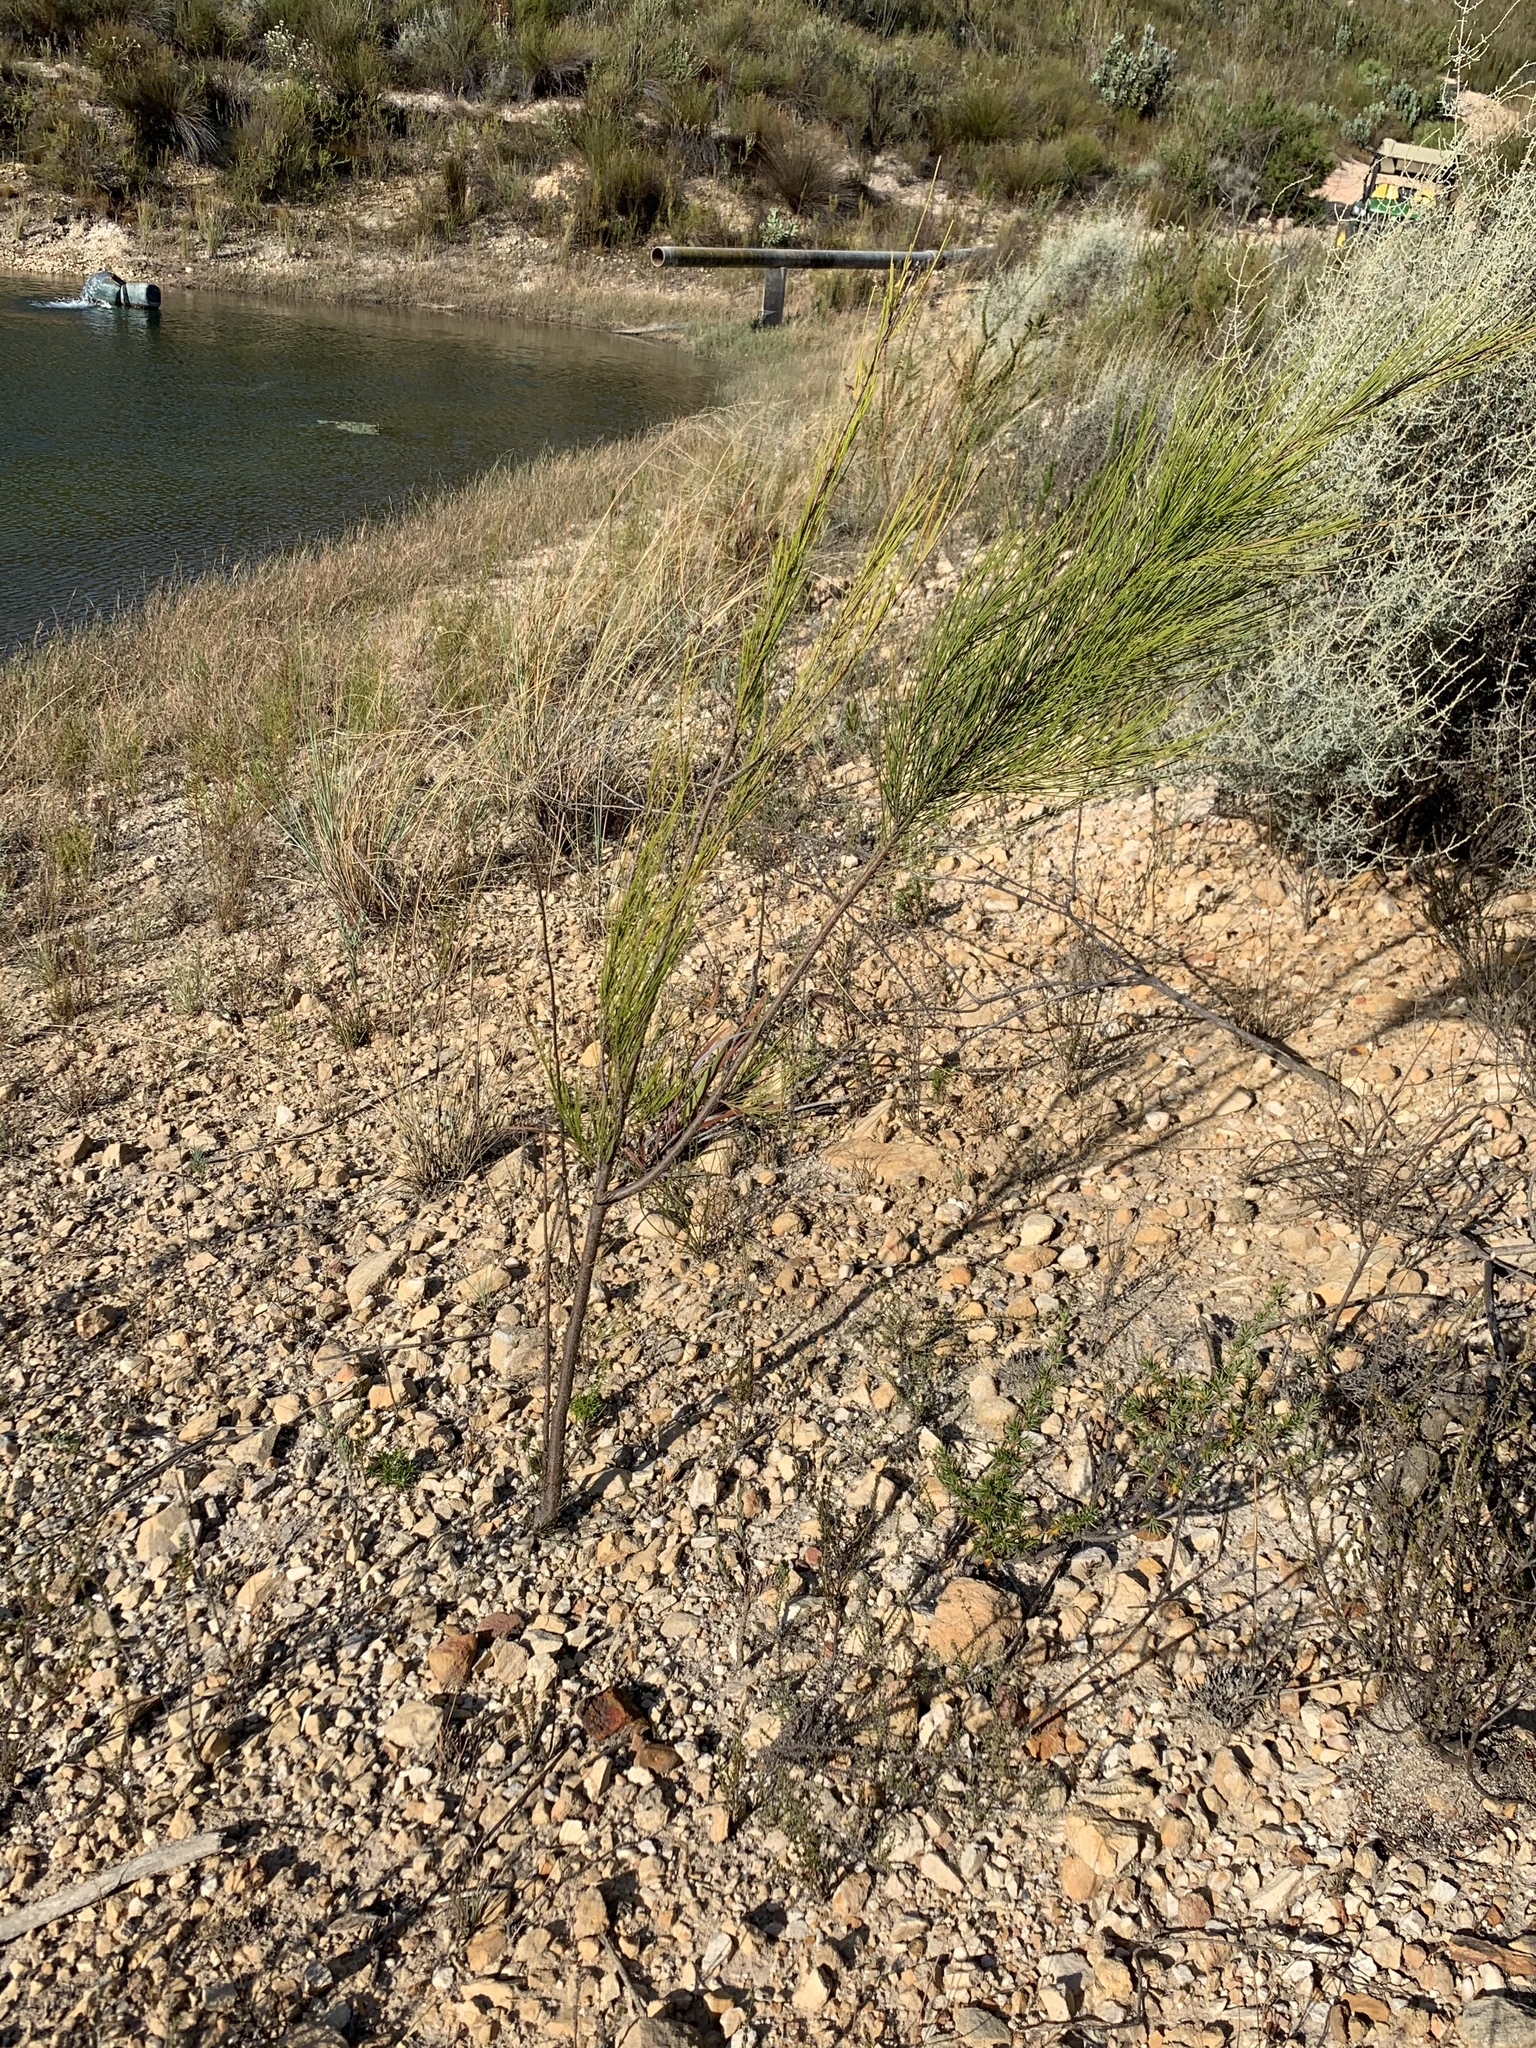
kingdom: Plantae
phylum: Tracheophyta
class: Magnoliopsida
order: Fagales
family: Casuarinaceae
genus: Casuarina
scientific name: Casuarina cunninghamiana
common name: River sheoak
